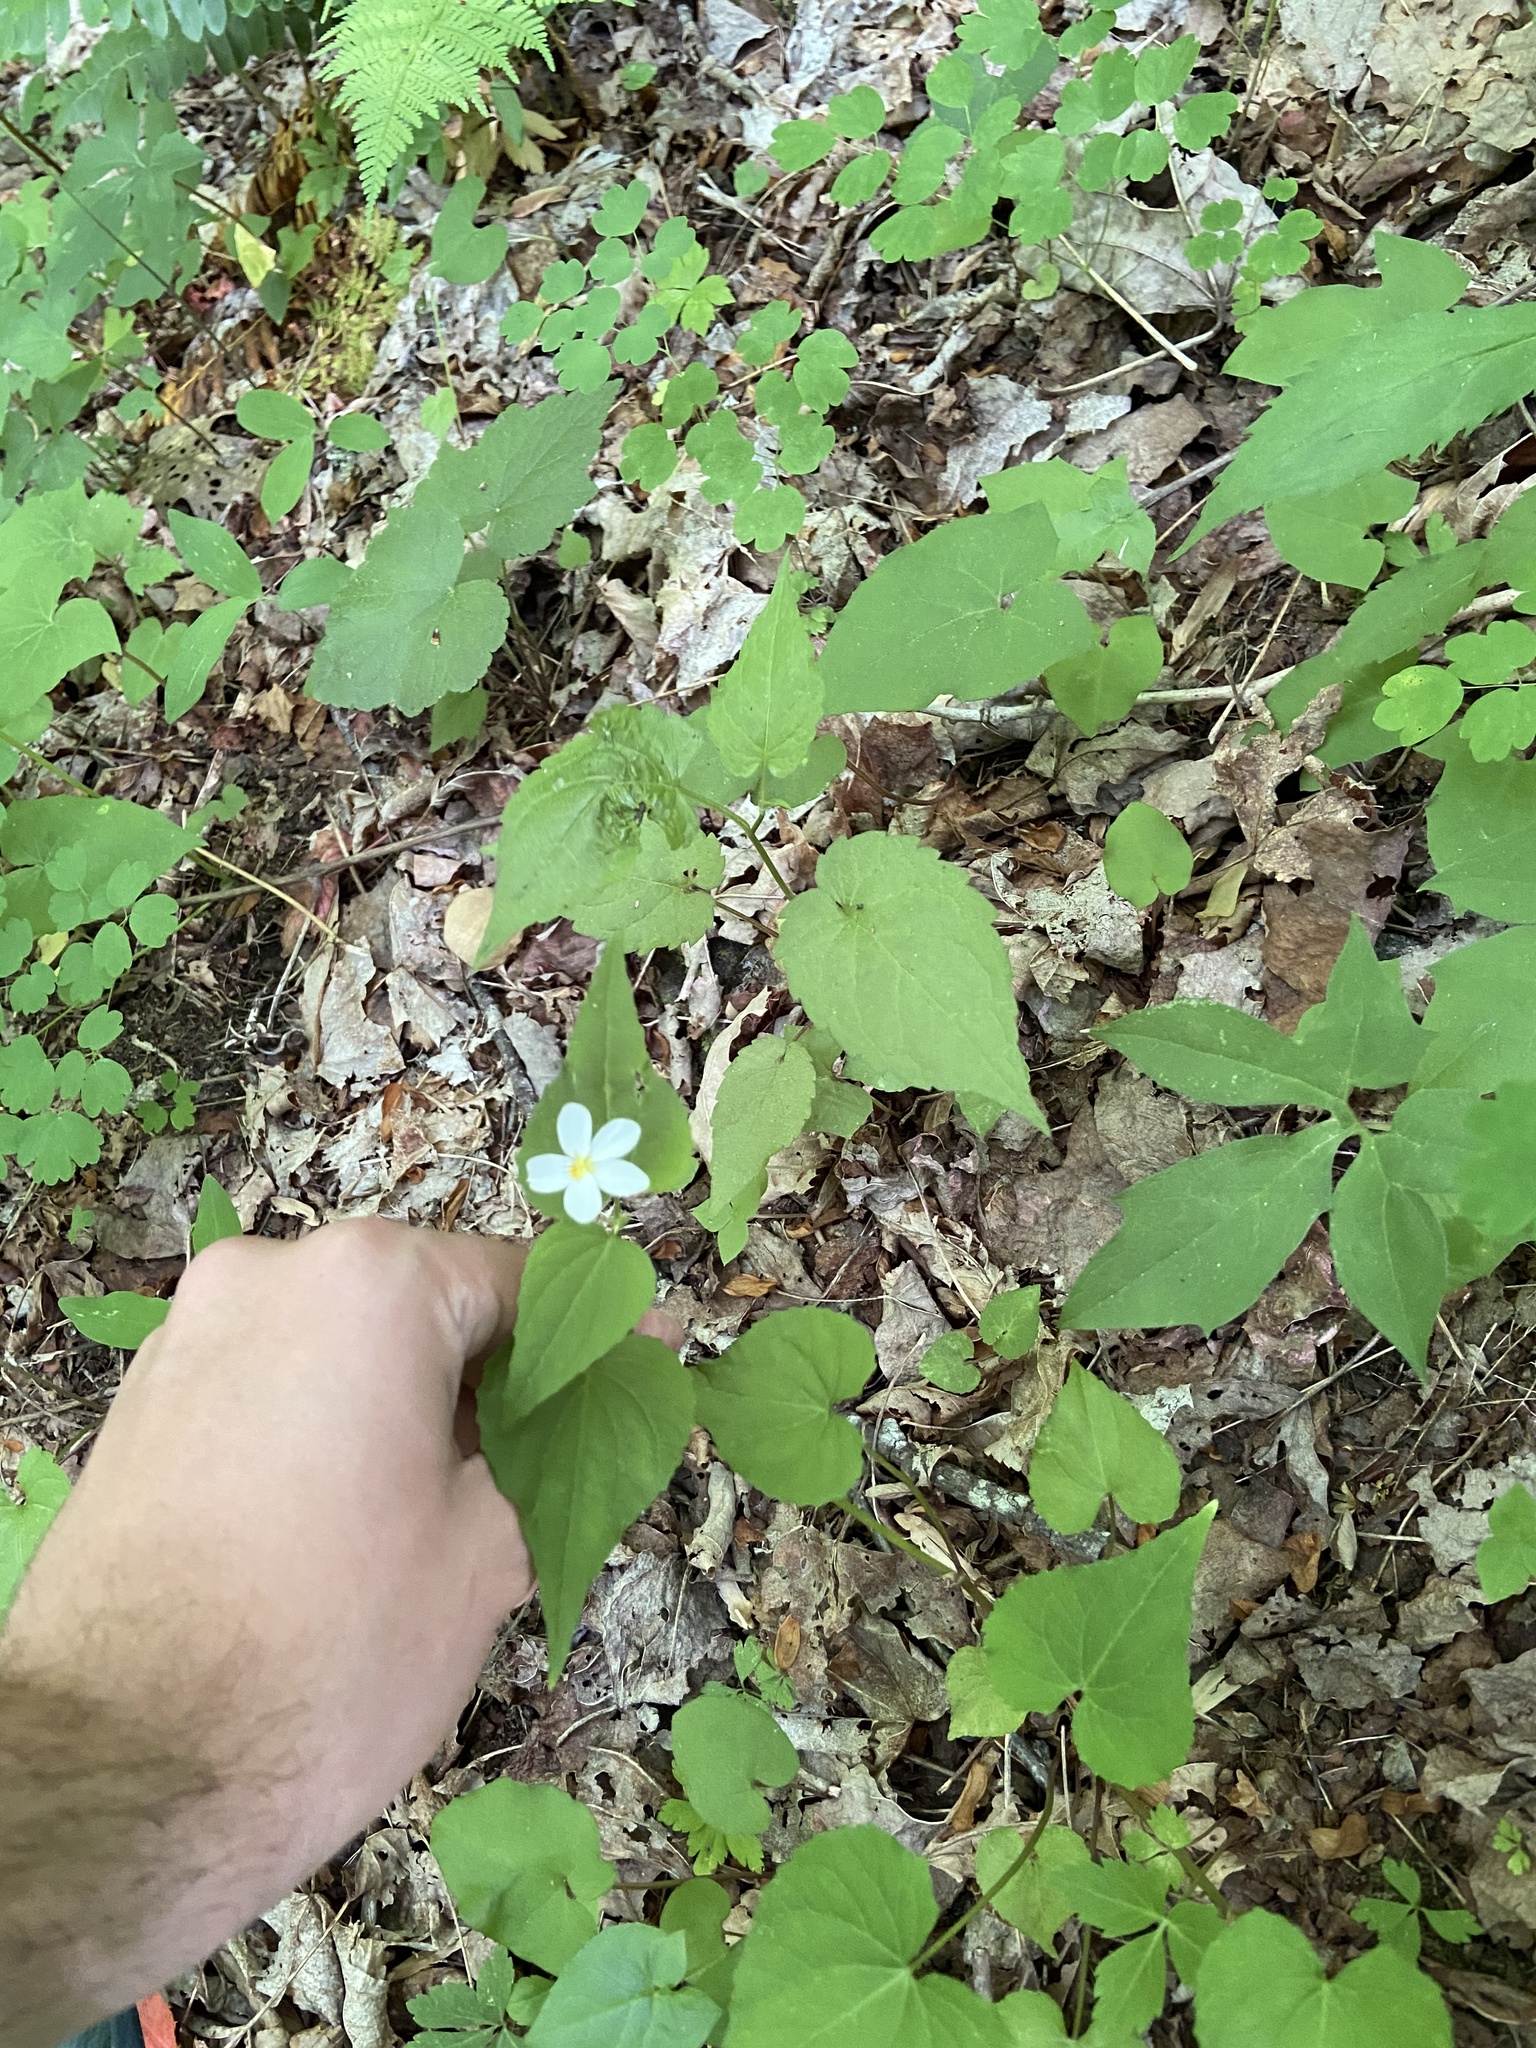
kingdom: Plantae
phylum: Tracheophyta
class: Magnoliopsida
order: Malpighiales
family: Violaceae
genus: Viola
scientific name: Viola canadensis
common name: Canada violet
